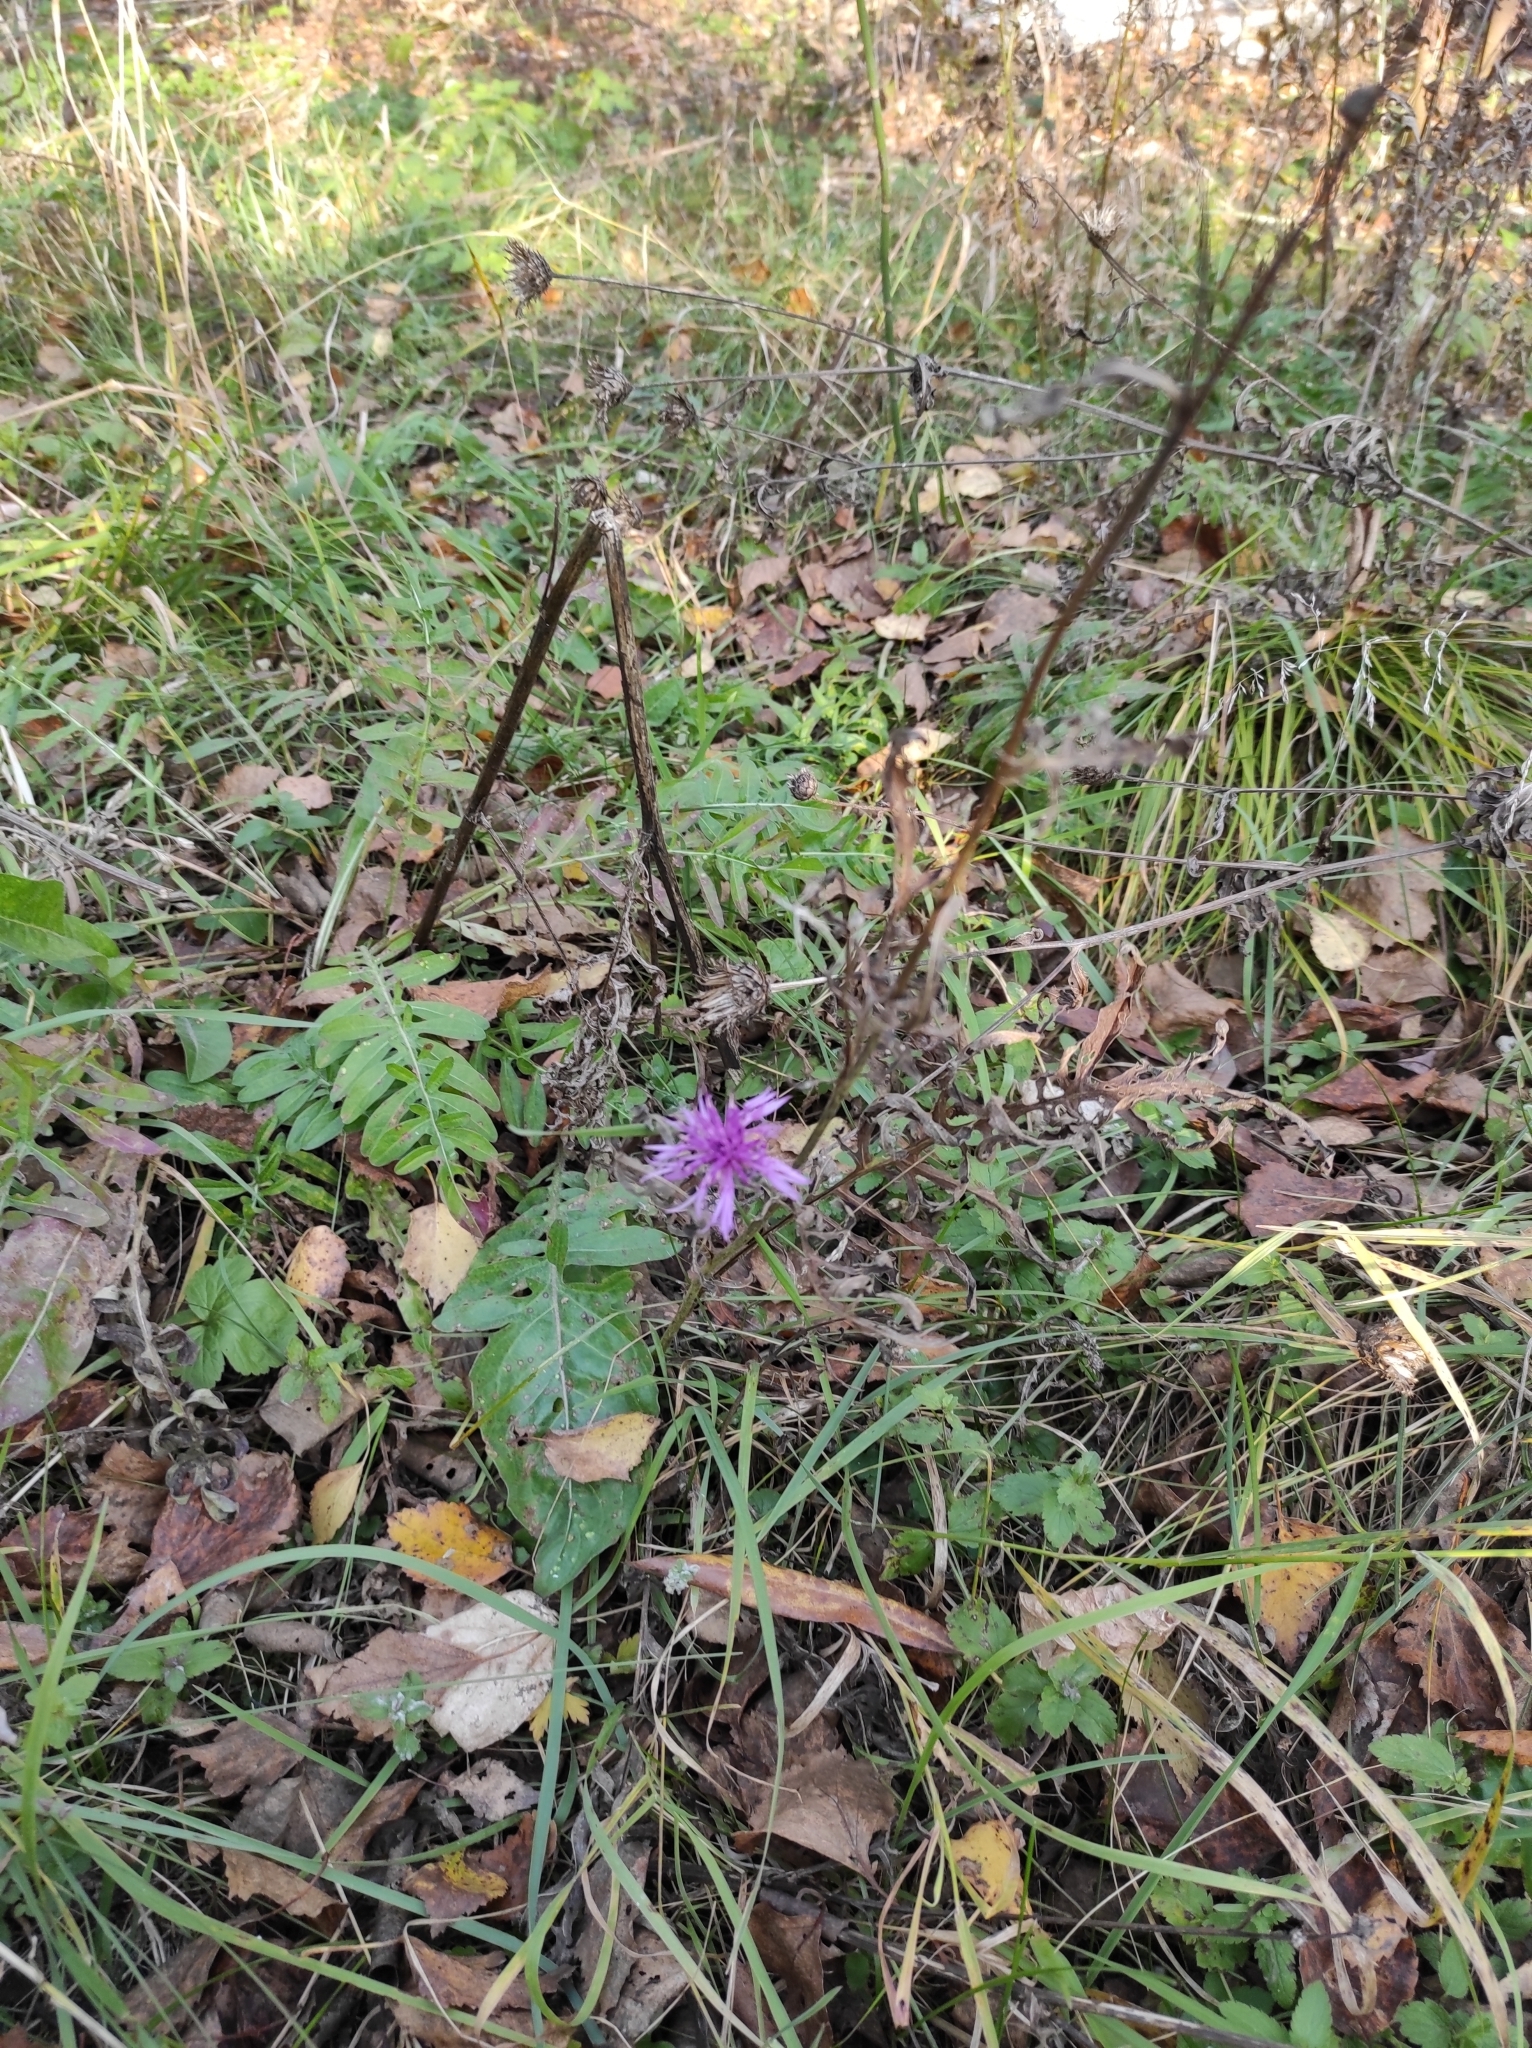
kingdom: Plantae
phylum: Tracheophyta
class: Magnoliopsida
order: Asterales
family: Asteraceae
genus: Centaurea
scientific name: Centaurea scabiosa
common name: Greater knapweed
